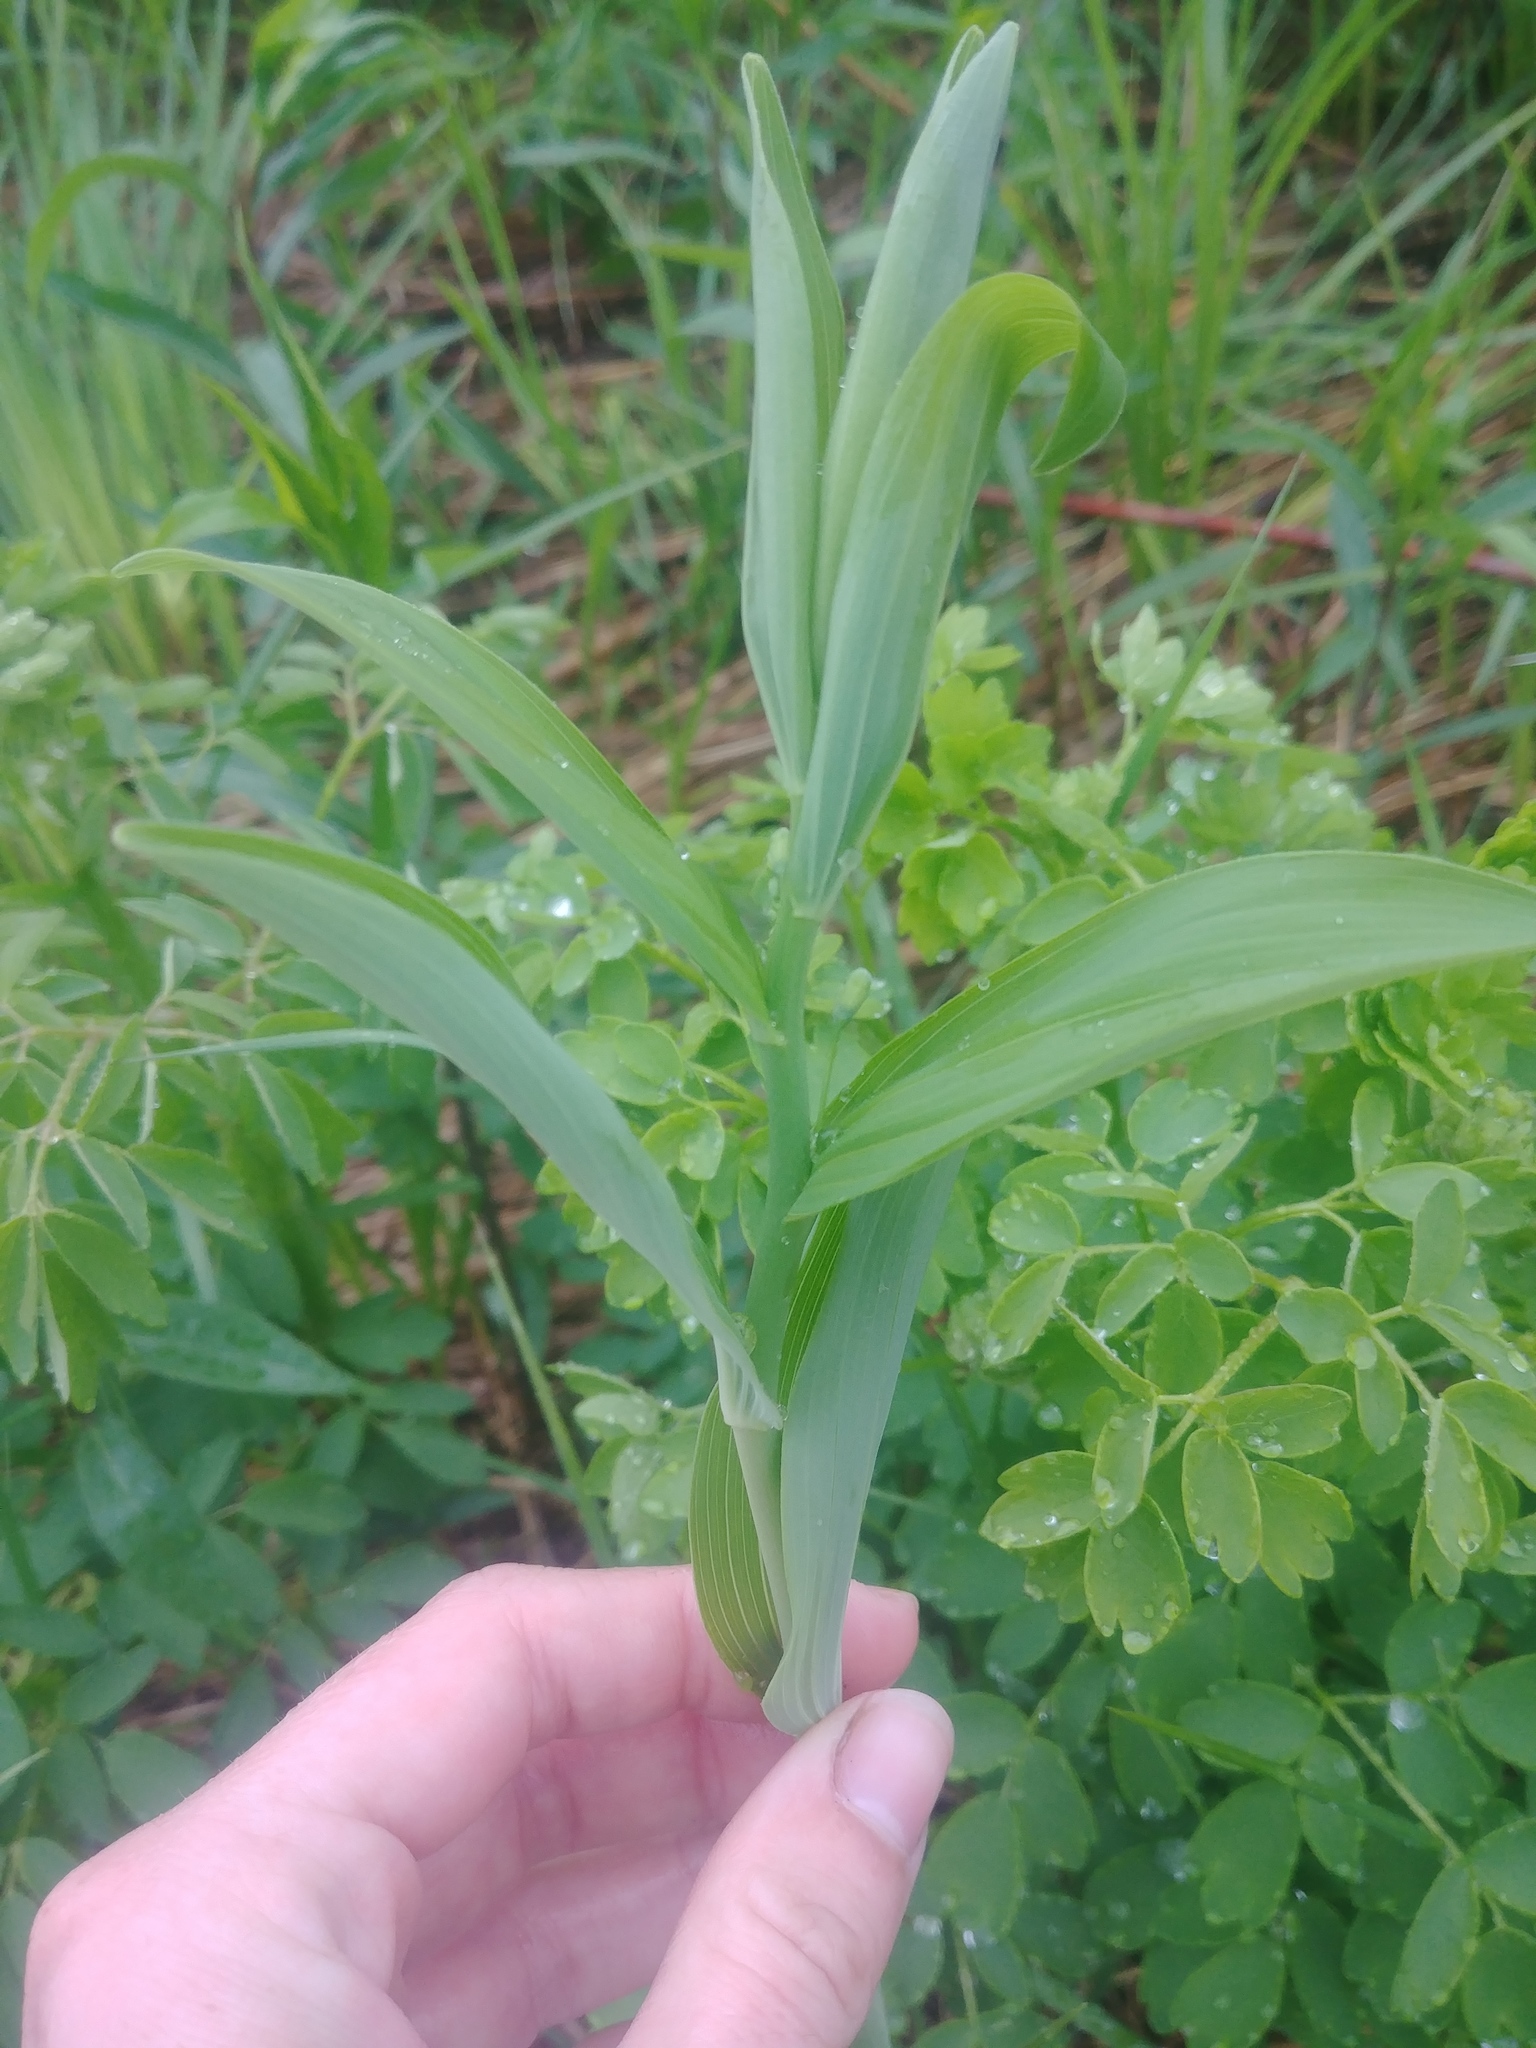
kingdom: Plantae
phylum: Tracheophyta
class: Liliopsida
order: Asparagales
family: Asparagaceae
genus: Polygonatum
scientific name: Polygonatum biflorum
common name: American solomon's-seal
